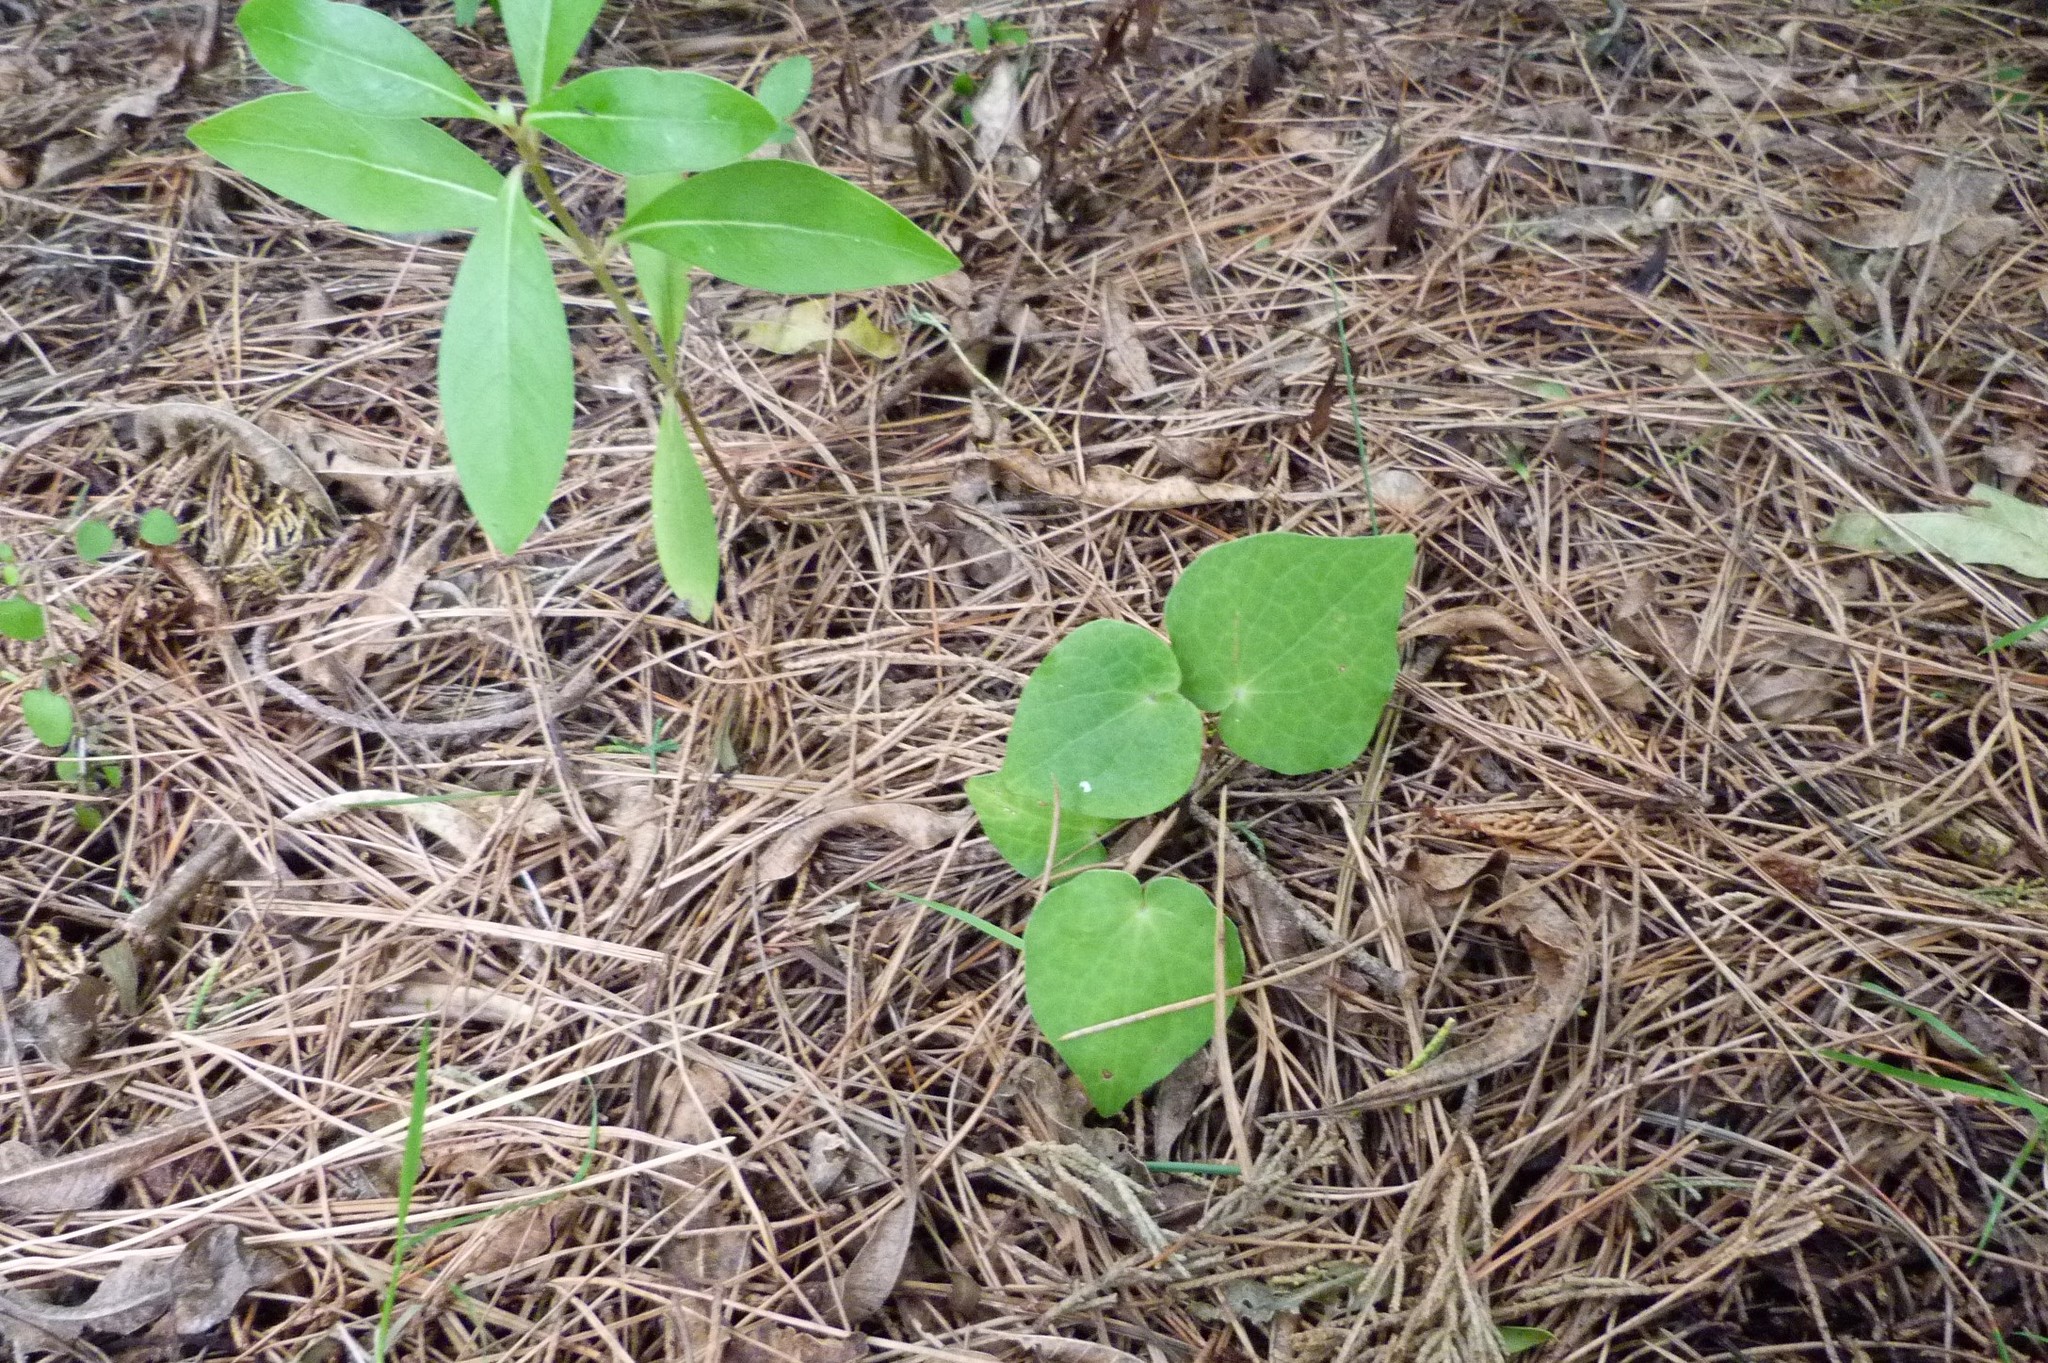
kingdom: Plantae
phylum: Tracheophyta
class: Magnoliopsida
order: Piperales
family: Piperaceae
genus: Macropiper
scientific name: Macropiper excelsum
